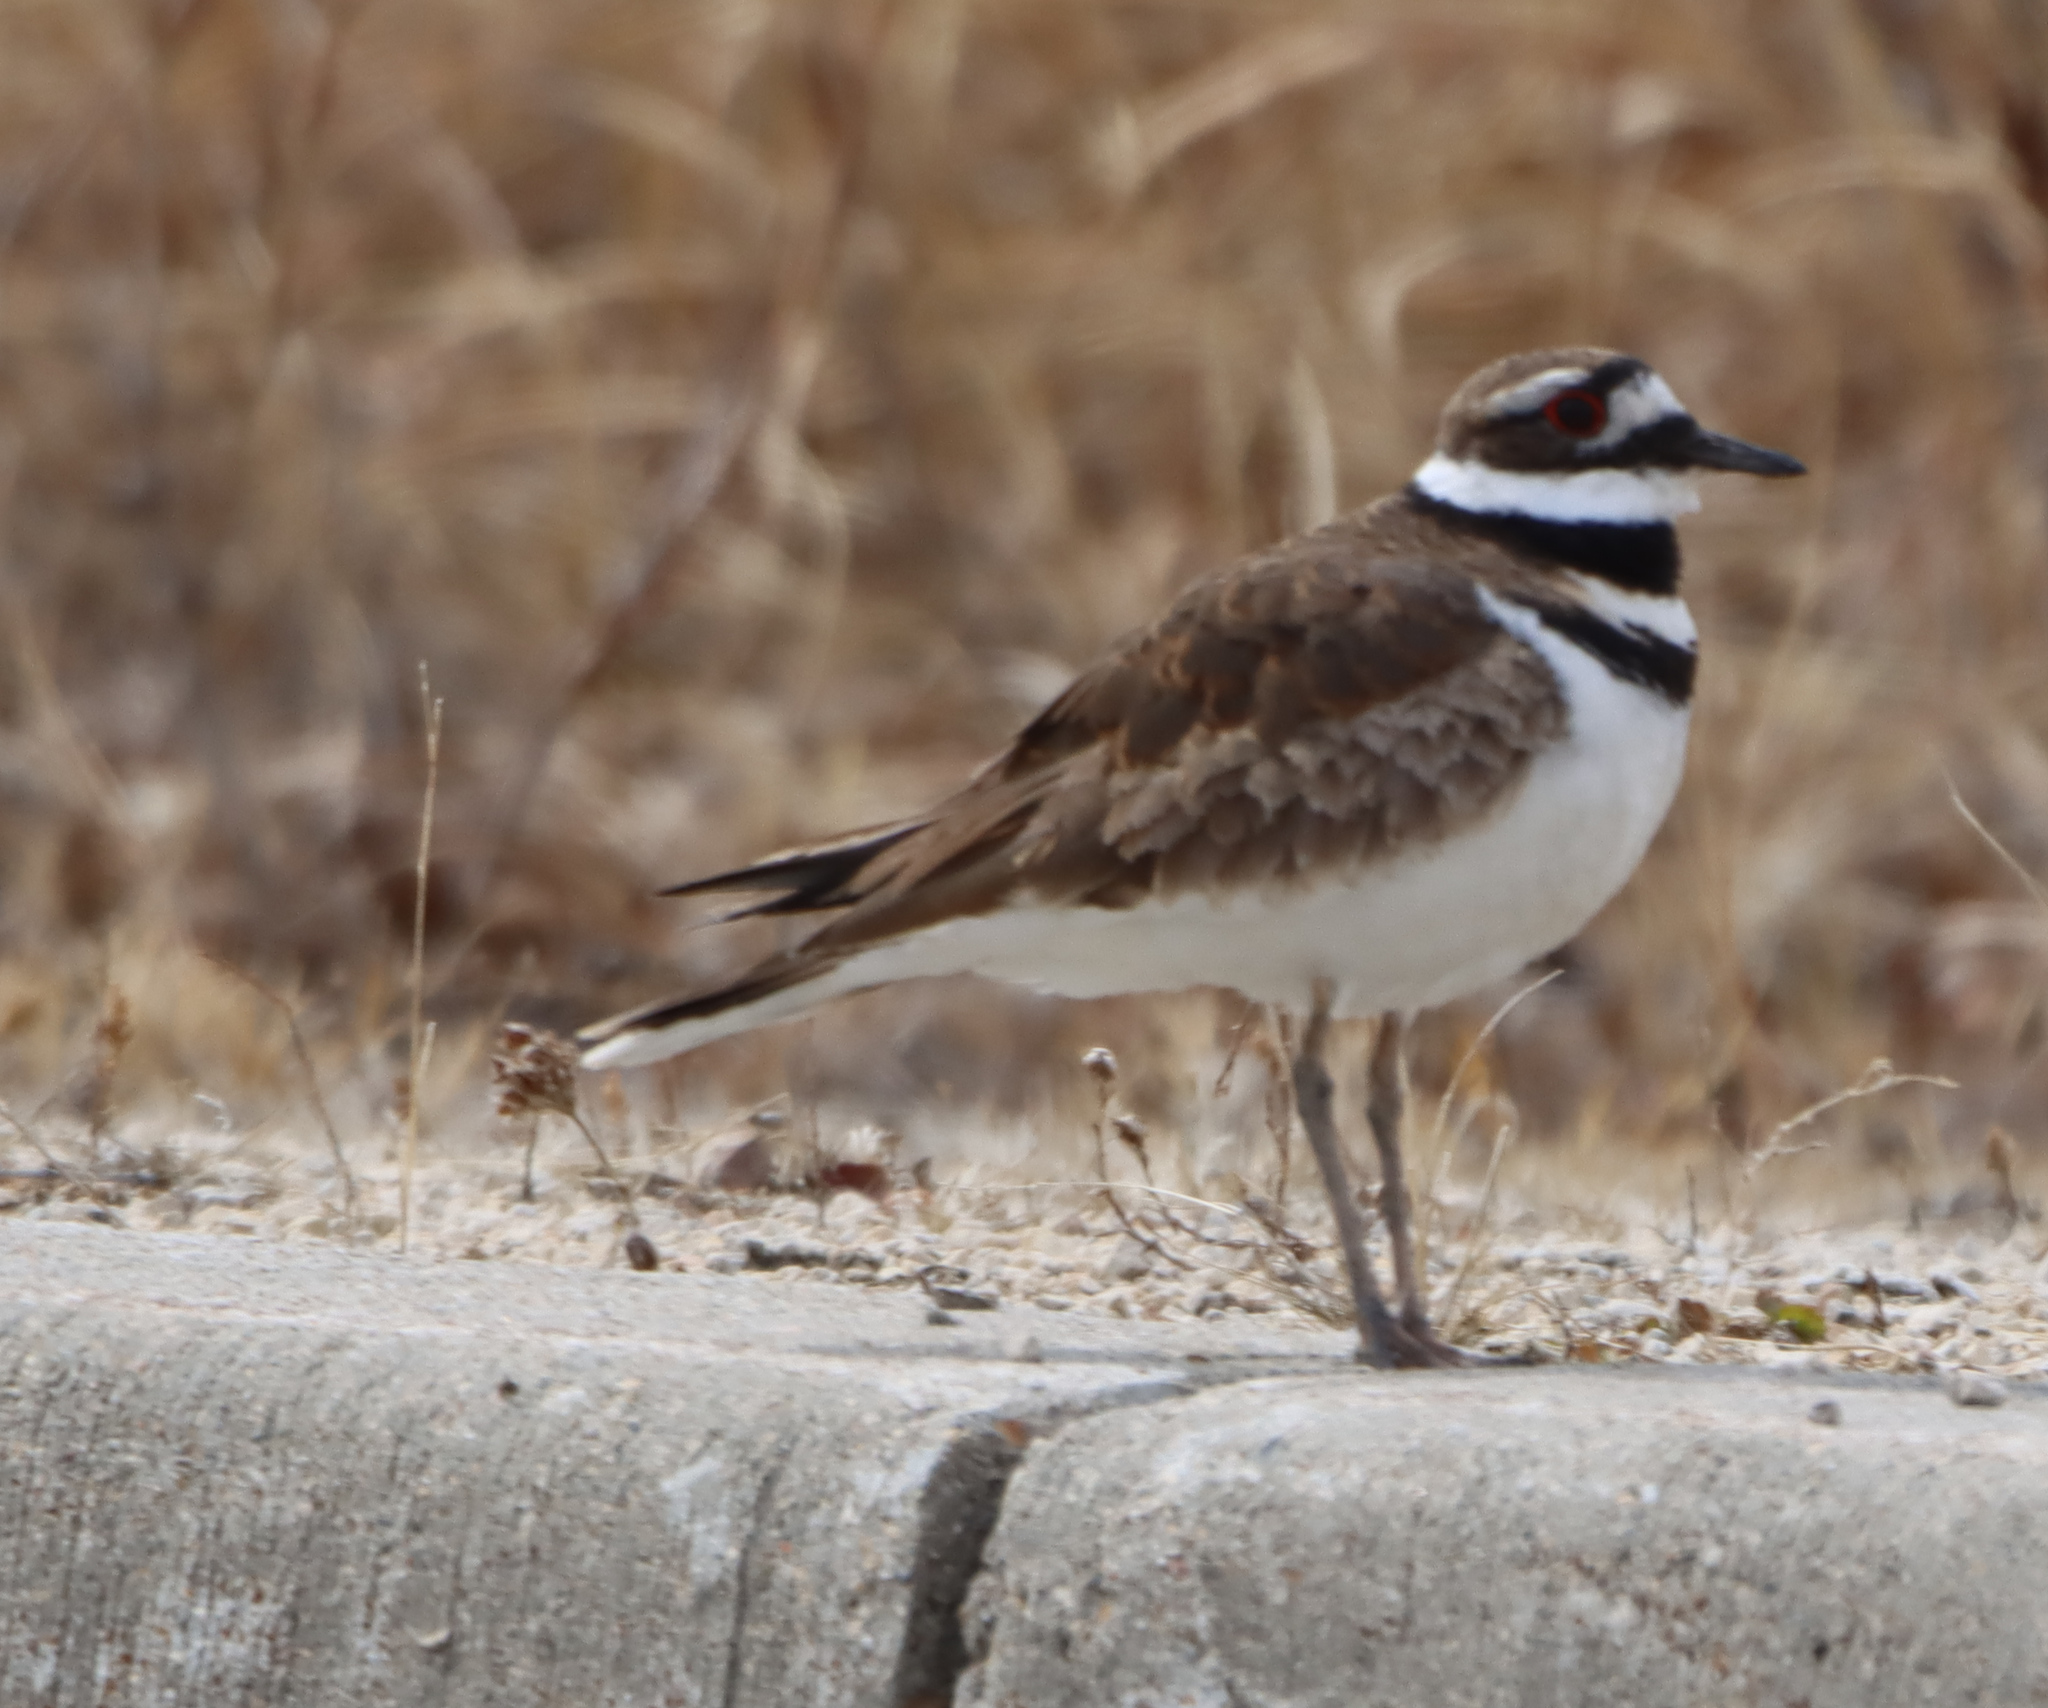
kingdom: Animalia
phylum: Chordata
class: Aves
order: Charadriiformes
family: Charadriidae
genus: Charadrius
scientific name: Charadrius vociferus
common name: Killdeer
